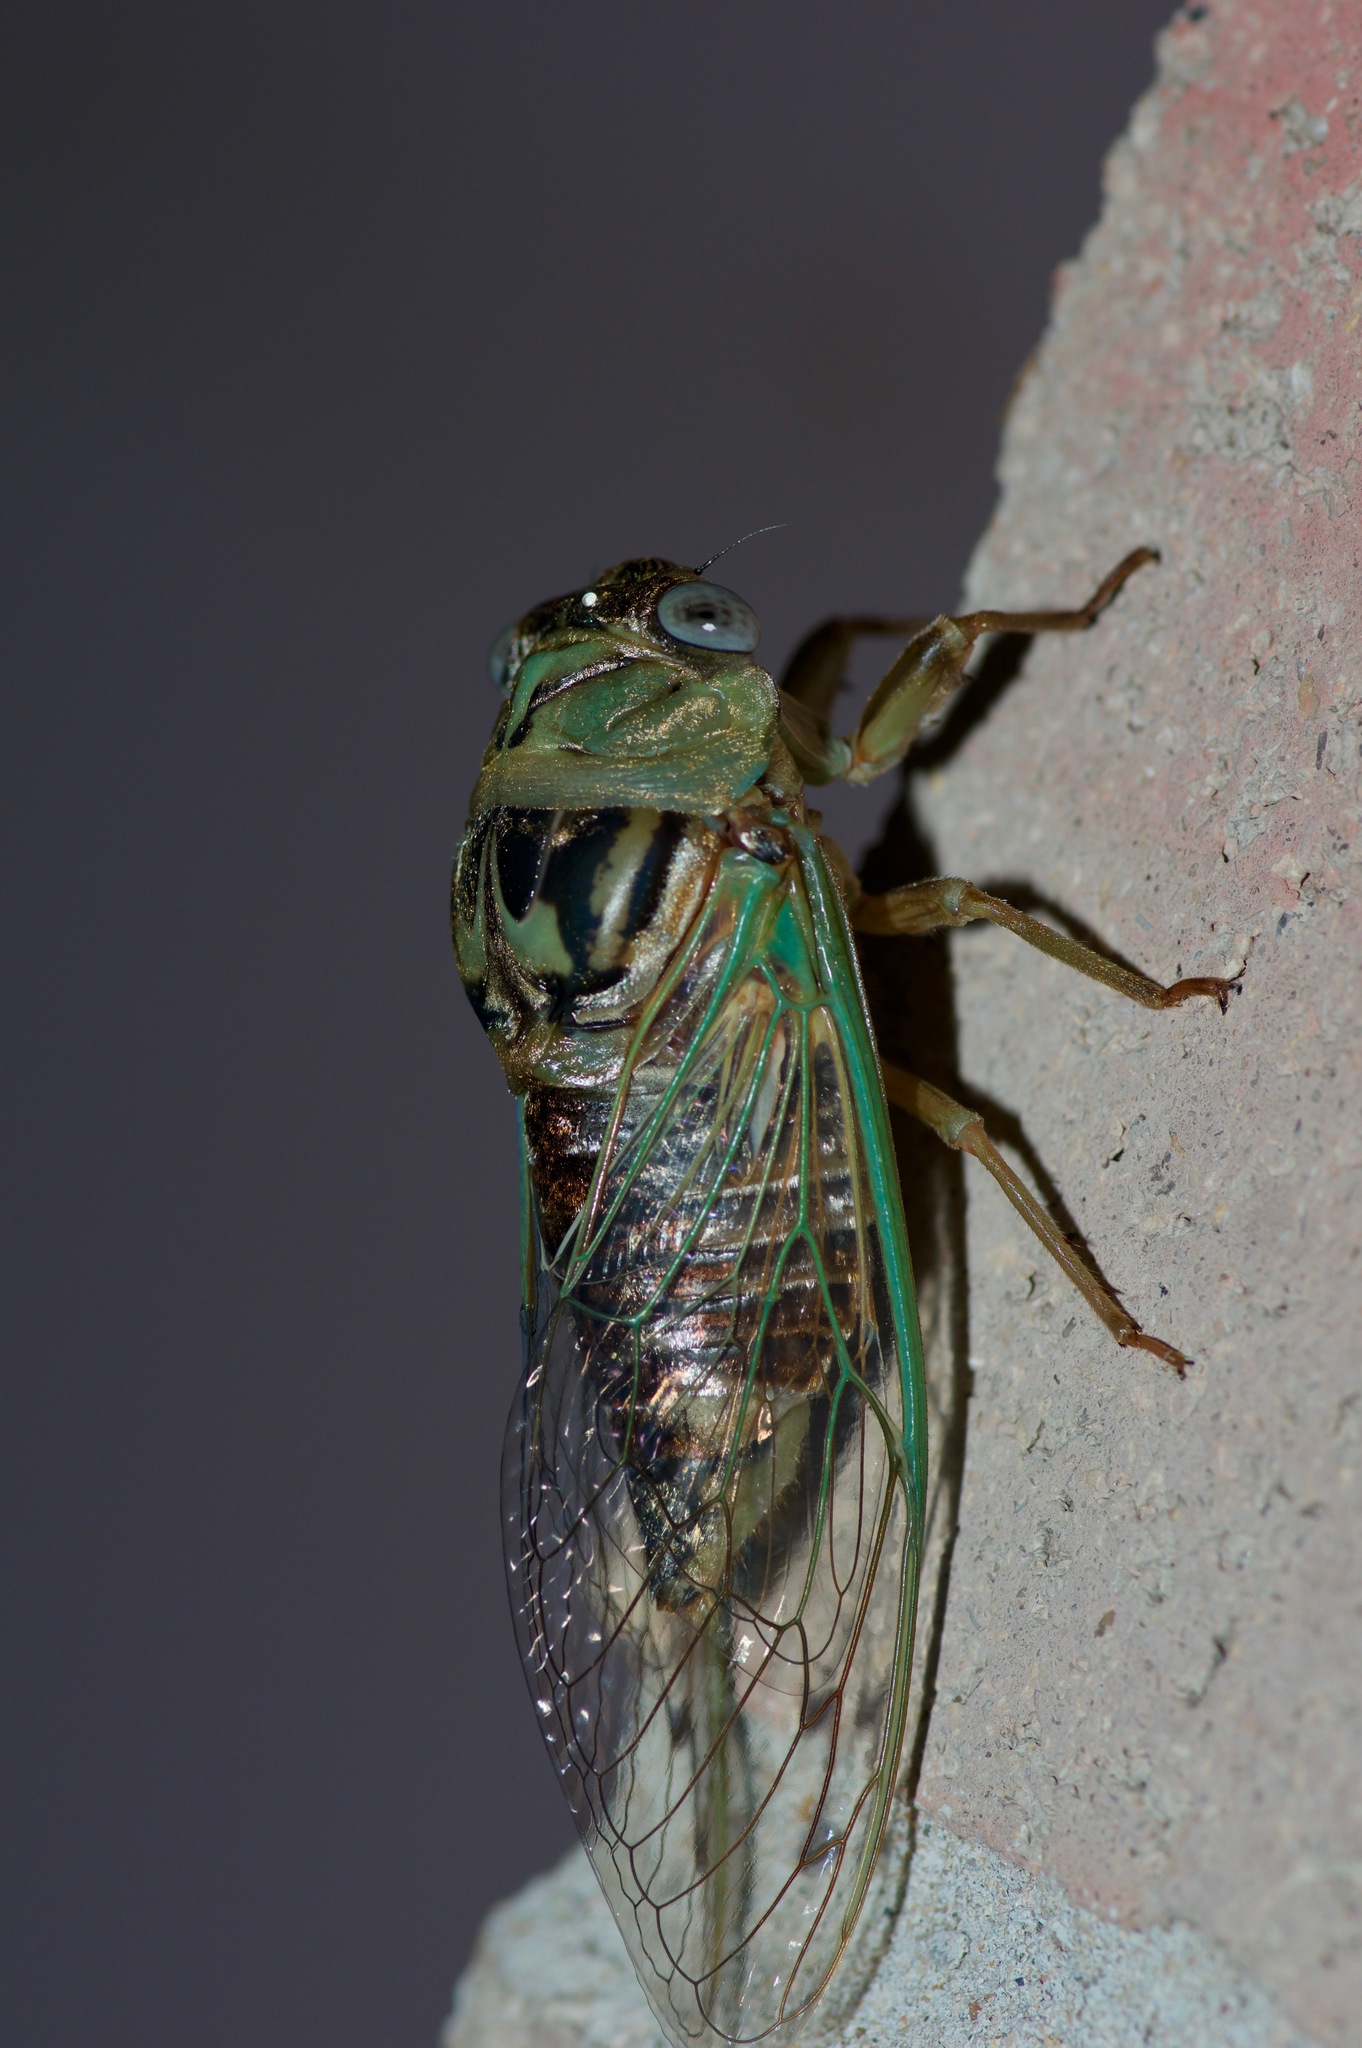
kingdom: Animalia
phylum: Arthropoda
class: Insecta
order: Hemiptera
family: Cicadidae
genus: Megatibicen
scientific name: Megatibicen resh
